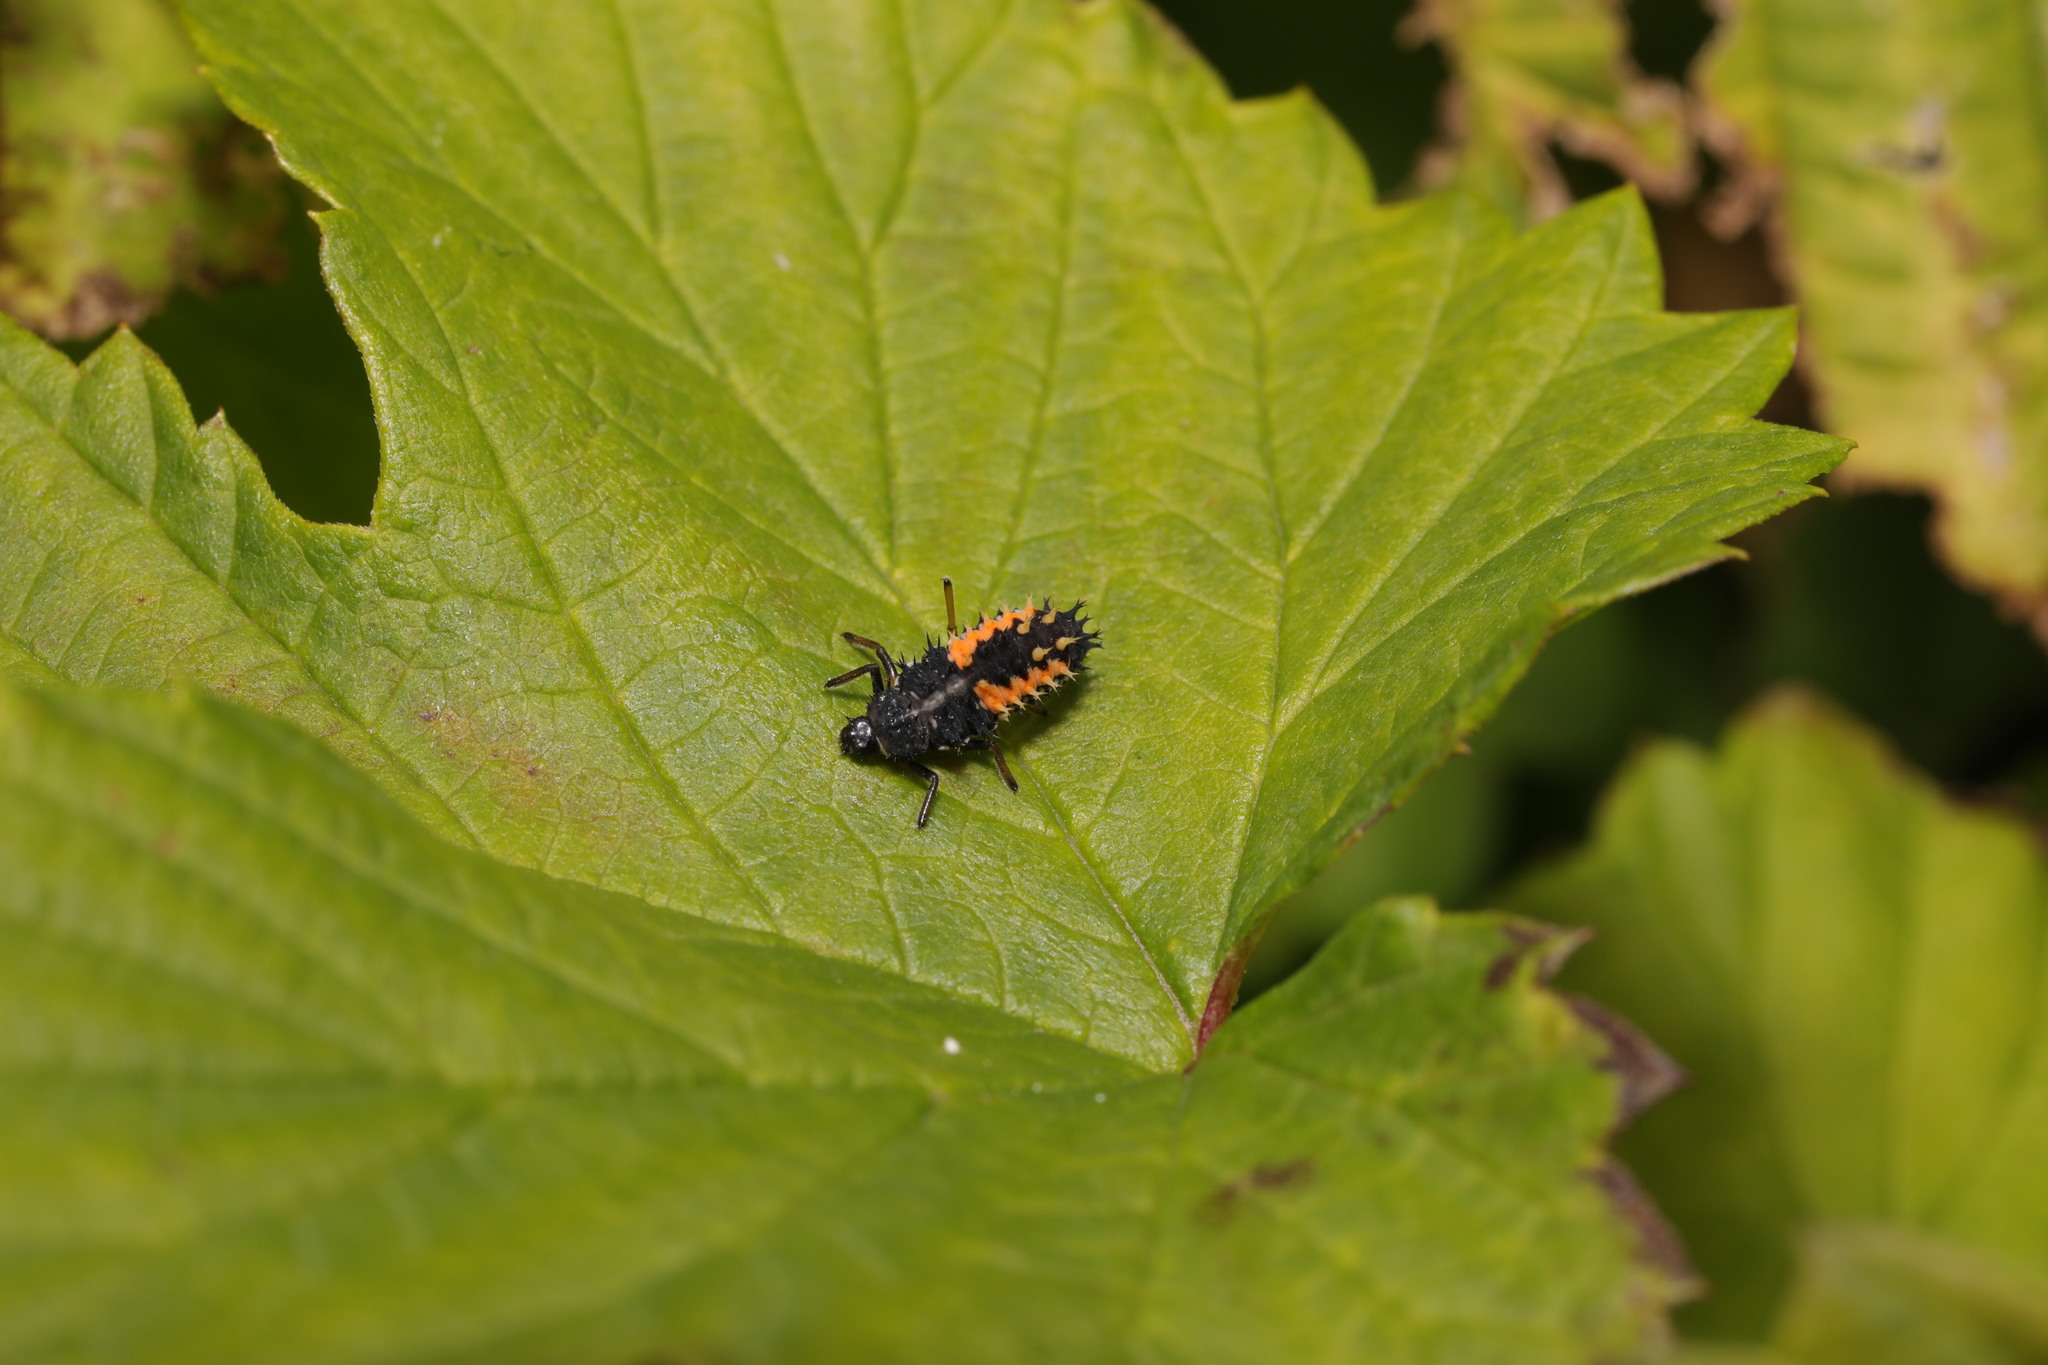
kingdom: Animalia
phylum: Arthropoda
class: Insecta
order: Coleoptera
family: Coccinellidae
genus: Harmonia
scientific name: Harmonia axyridis
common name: Harlequin ladybird
